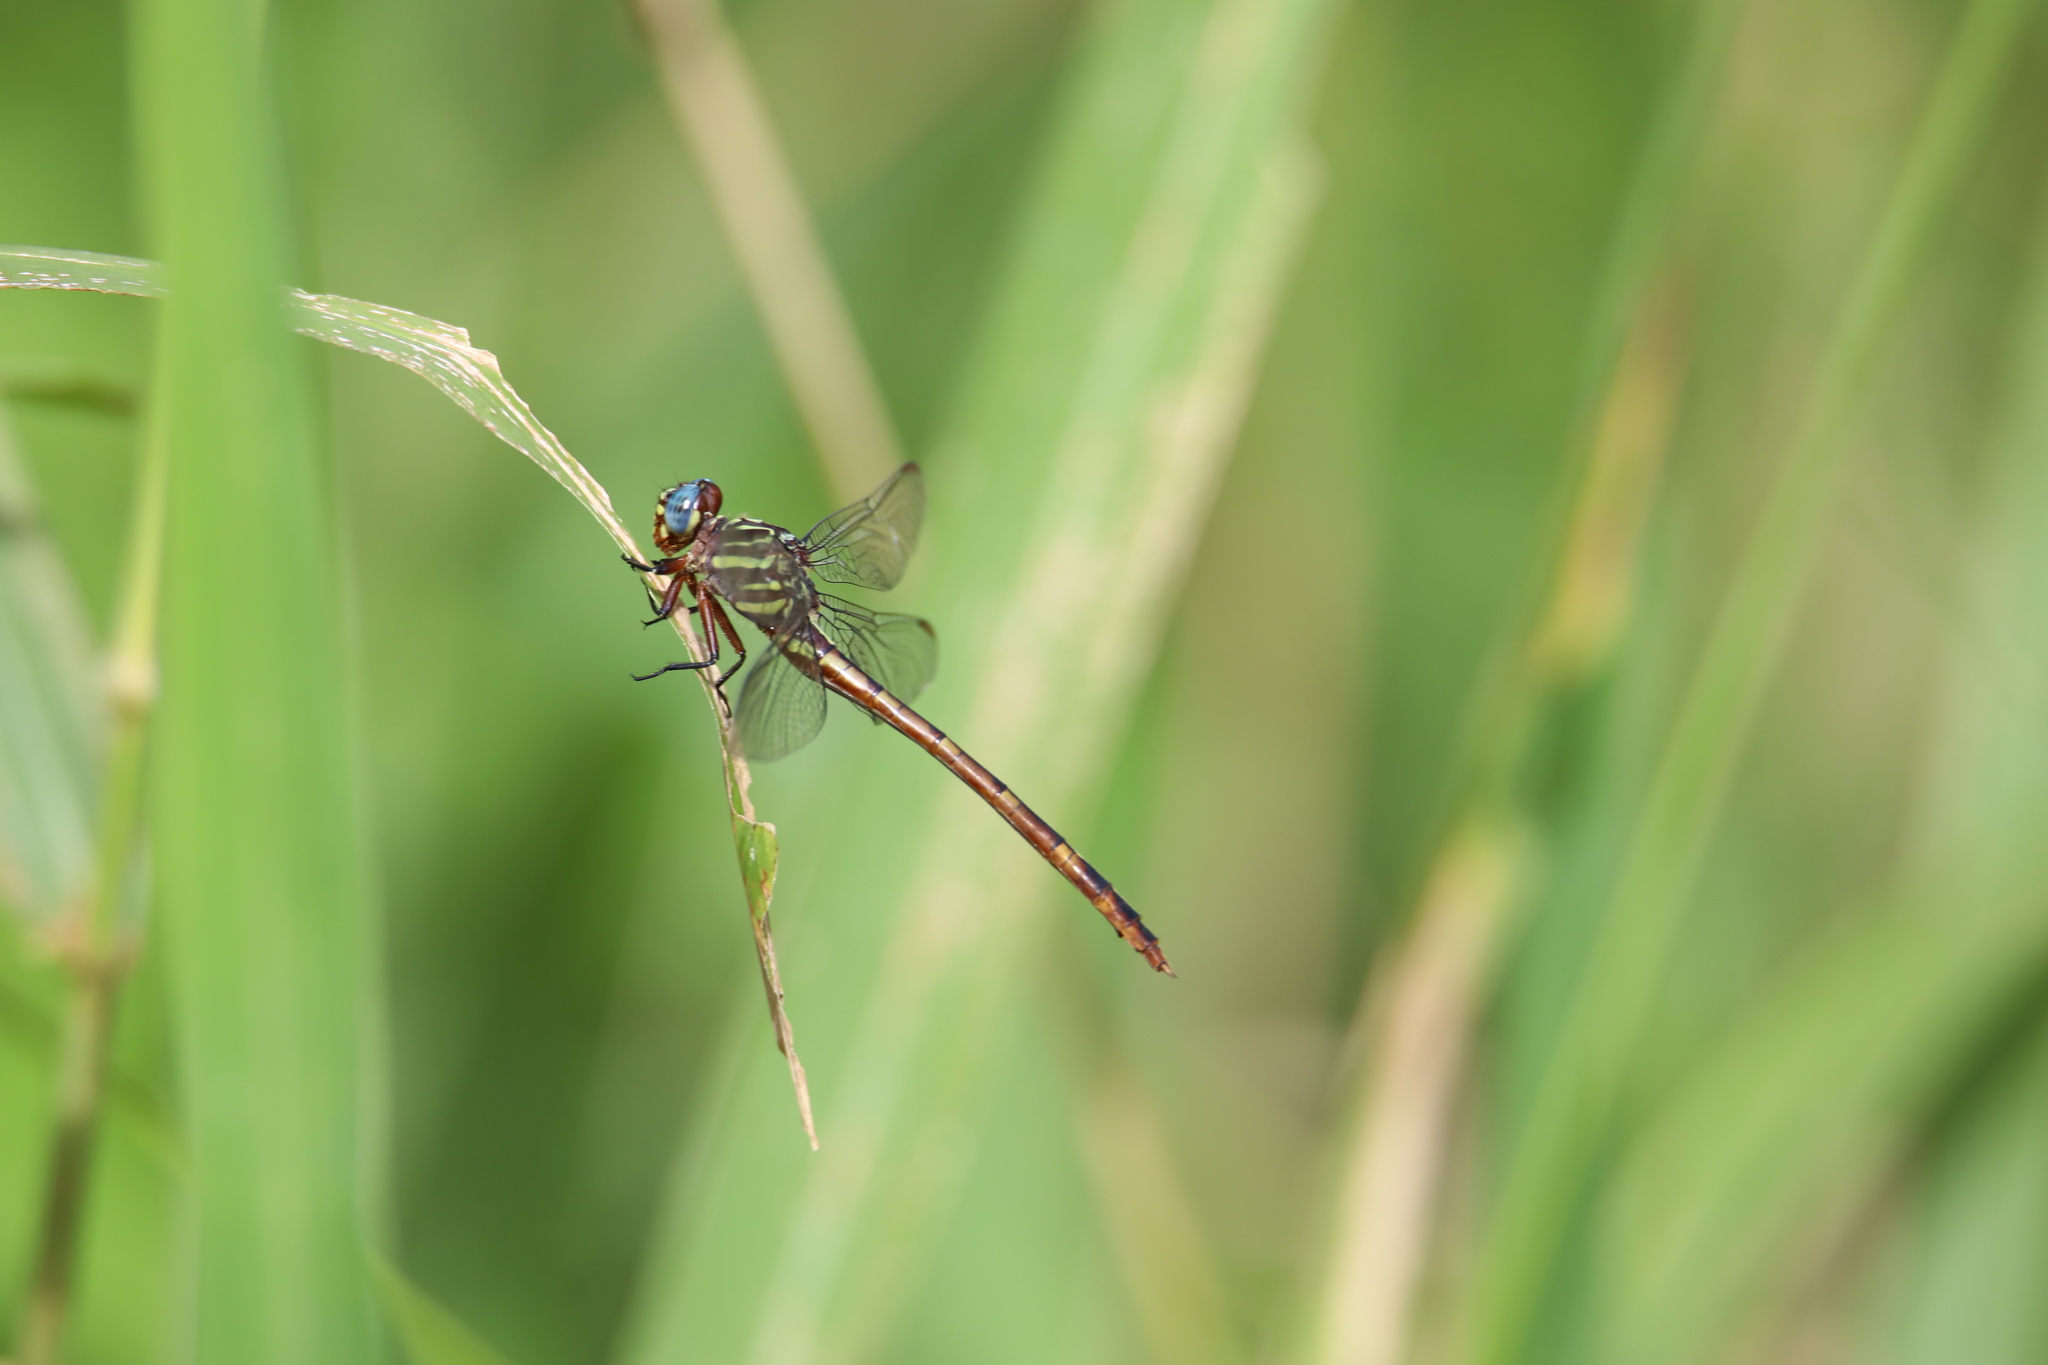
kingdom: Animalia
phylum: Arthropoda
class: Insecta
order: Odonata
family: Gomphidae
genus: Aphylla
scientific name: Aphylla caraiba
